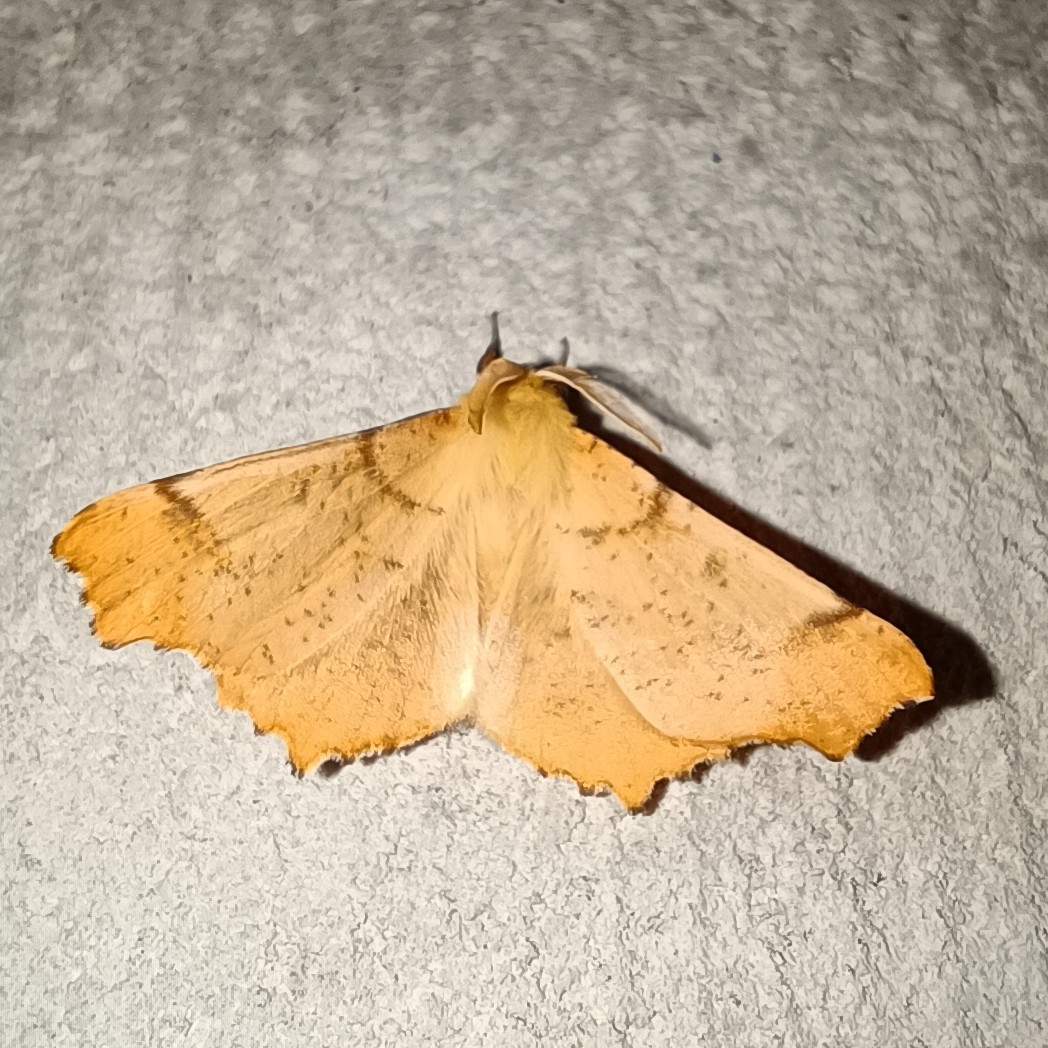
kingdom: Animalia
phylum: Arthropoda
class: Insecta
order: Lepidoptera
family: Geometridae
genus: Ennomos
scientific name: Ennomos autumnaria
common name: Large thorn
